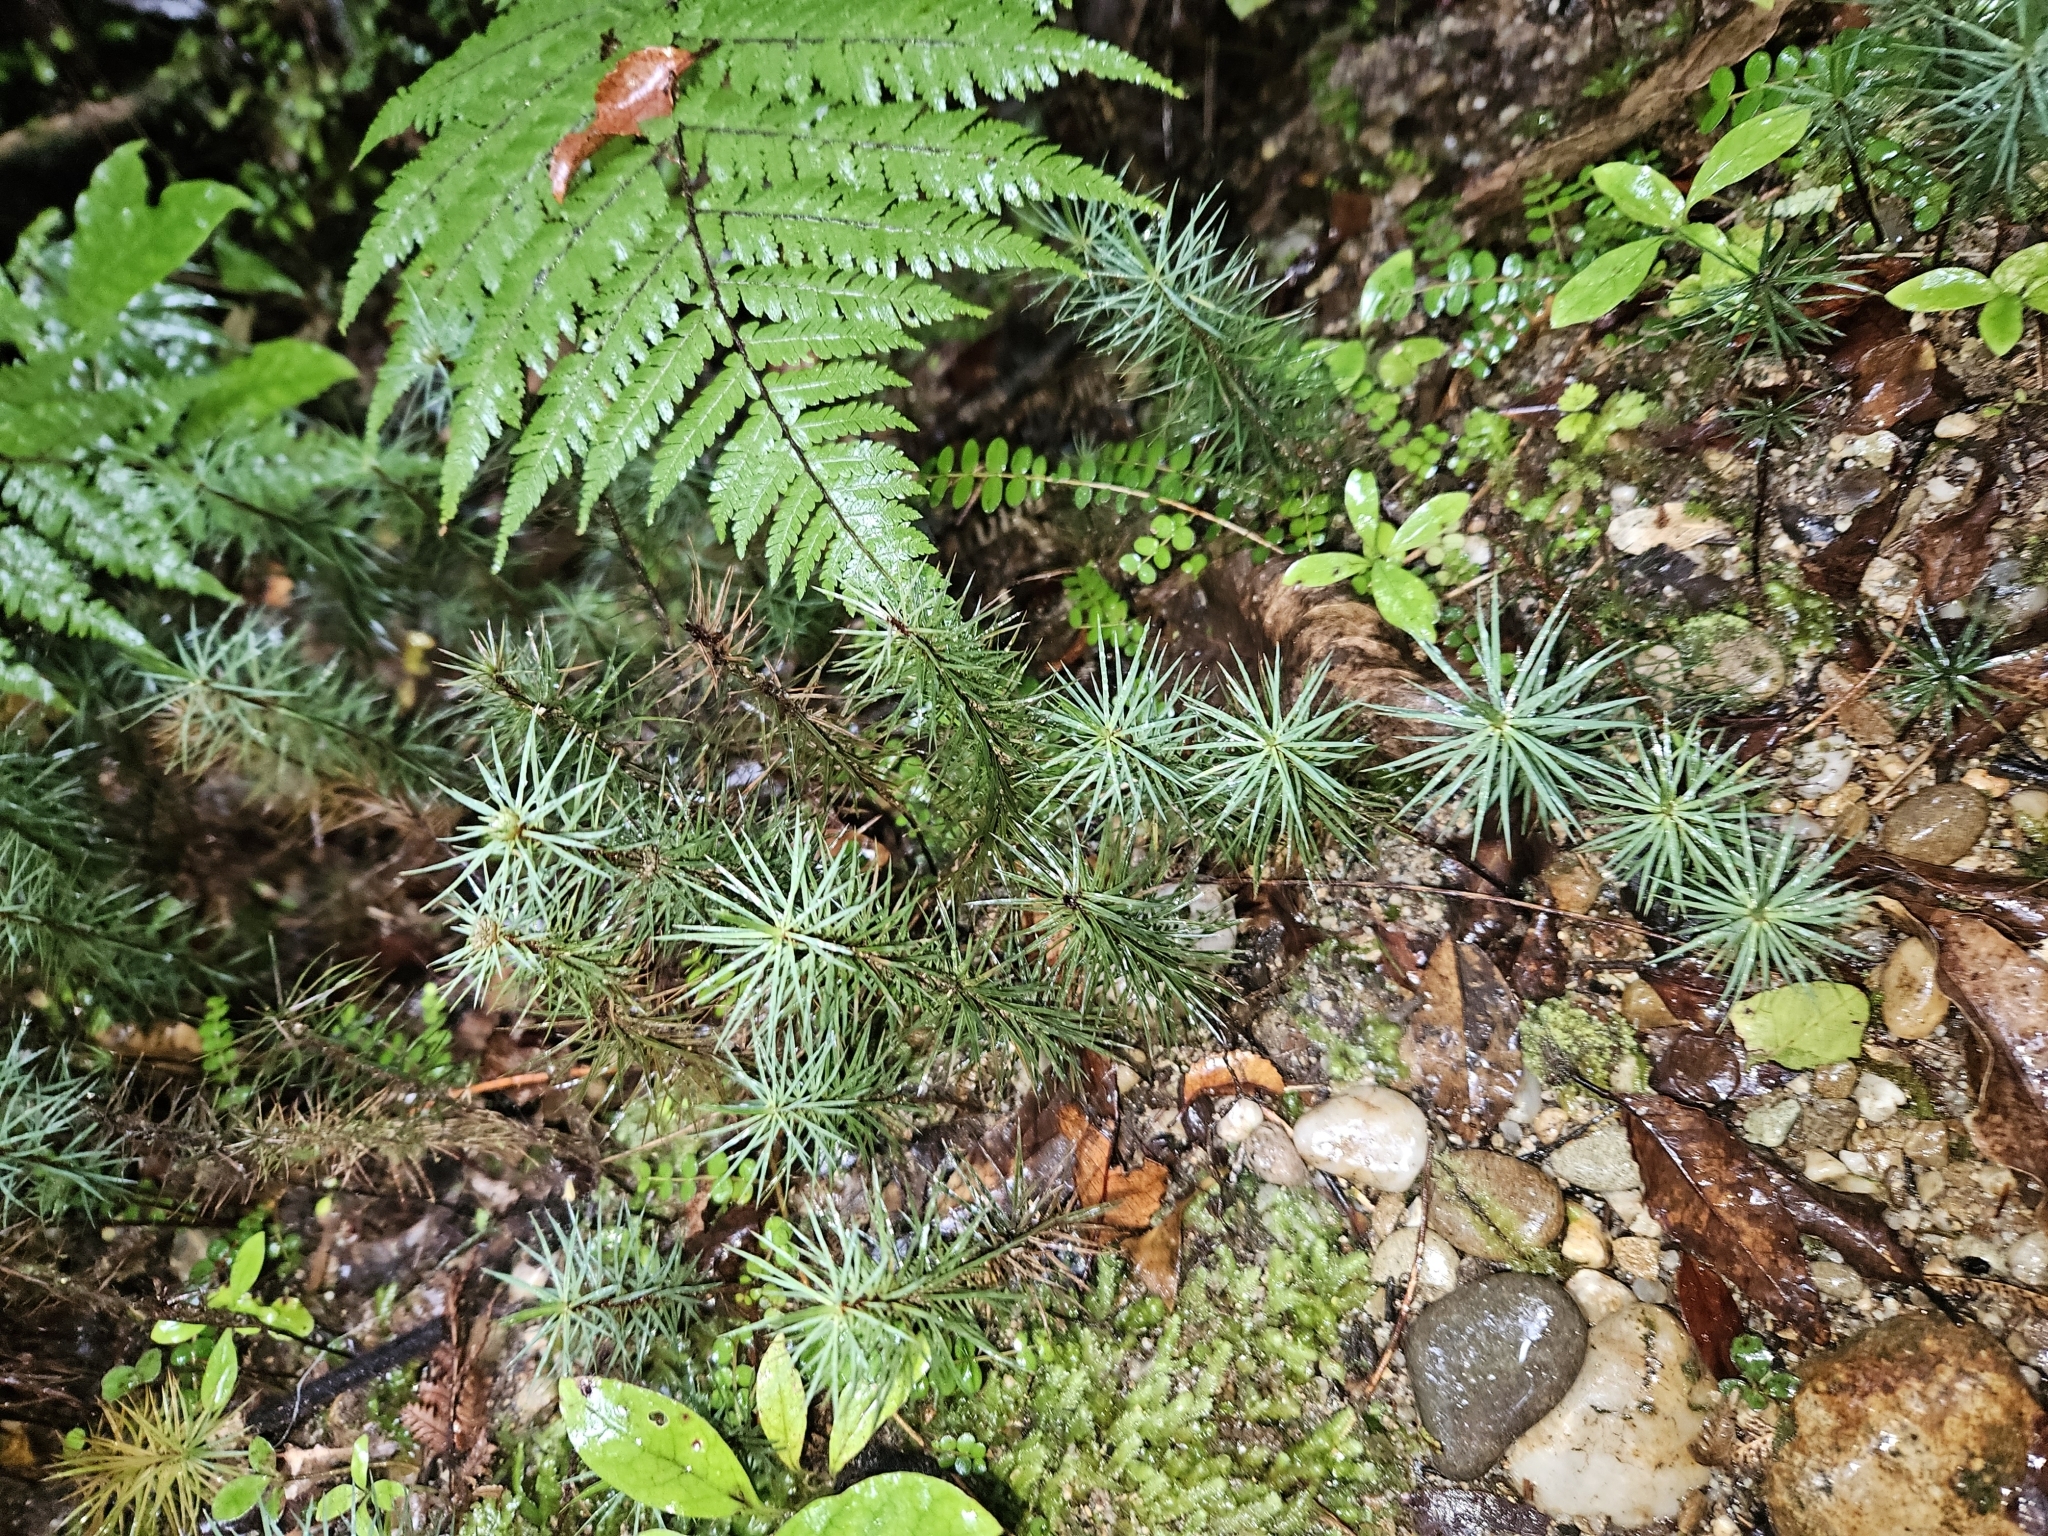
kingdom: Plantae
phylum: Bryophyta
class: Polytrichopsida
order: Polytrichales
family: Polytrichaceae
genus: Dawsonia
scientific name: Dawsonia superba
